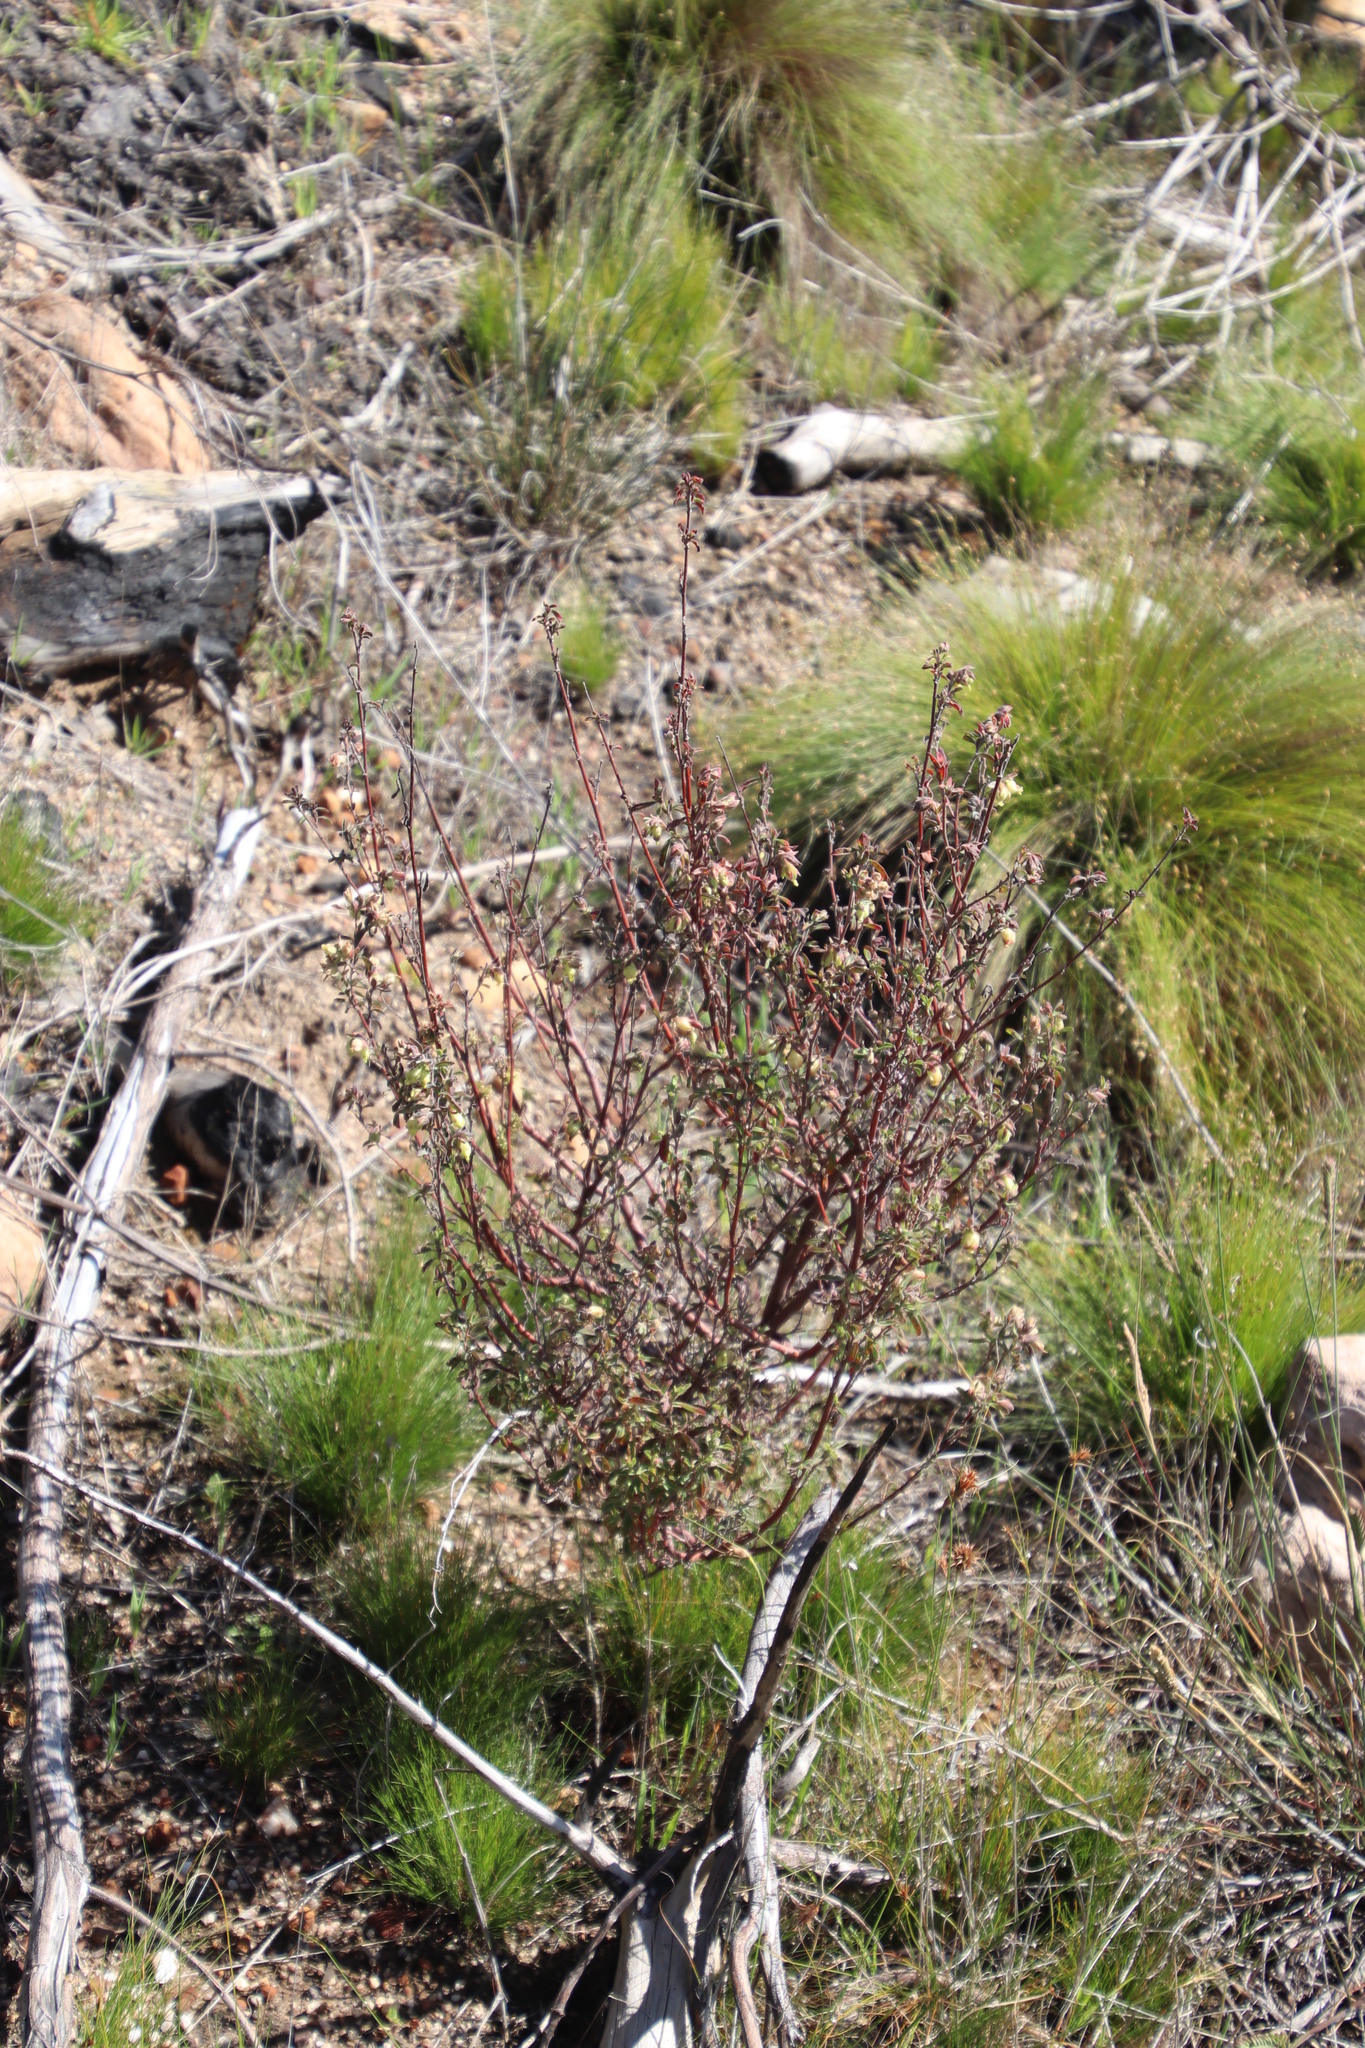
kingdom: Plantae
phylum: Tracheophyta
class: Magnoliopsida
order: Malvales
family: Malvaceae
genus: Hermannia
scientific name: Hermannia hyssopifolia
